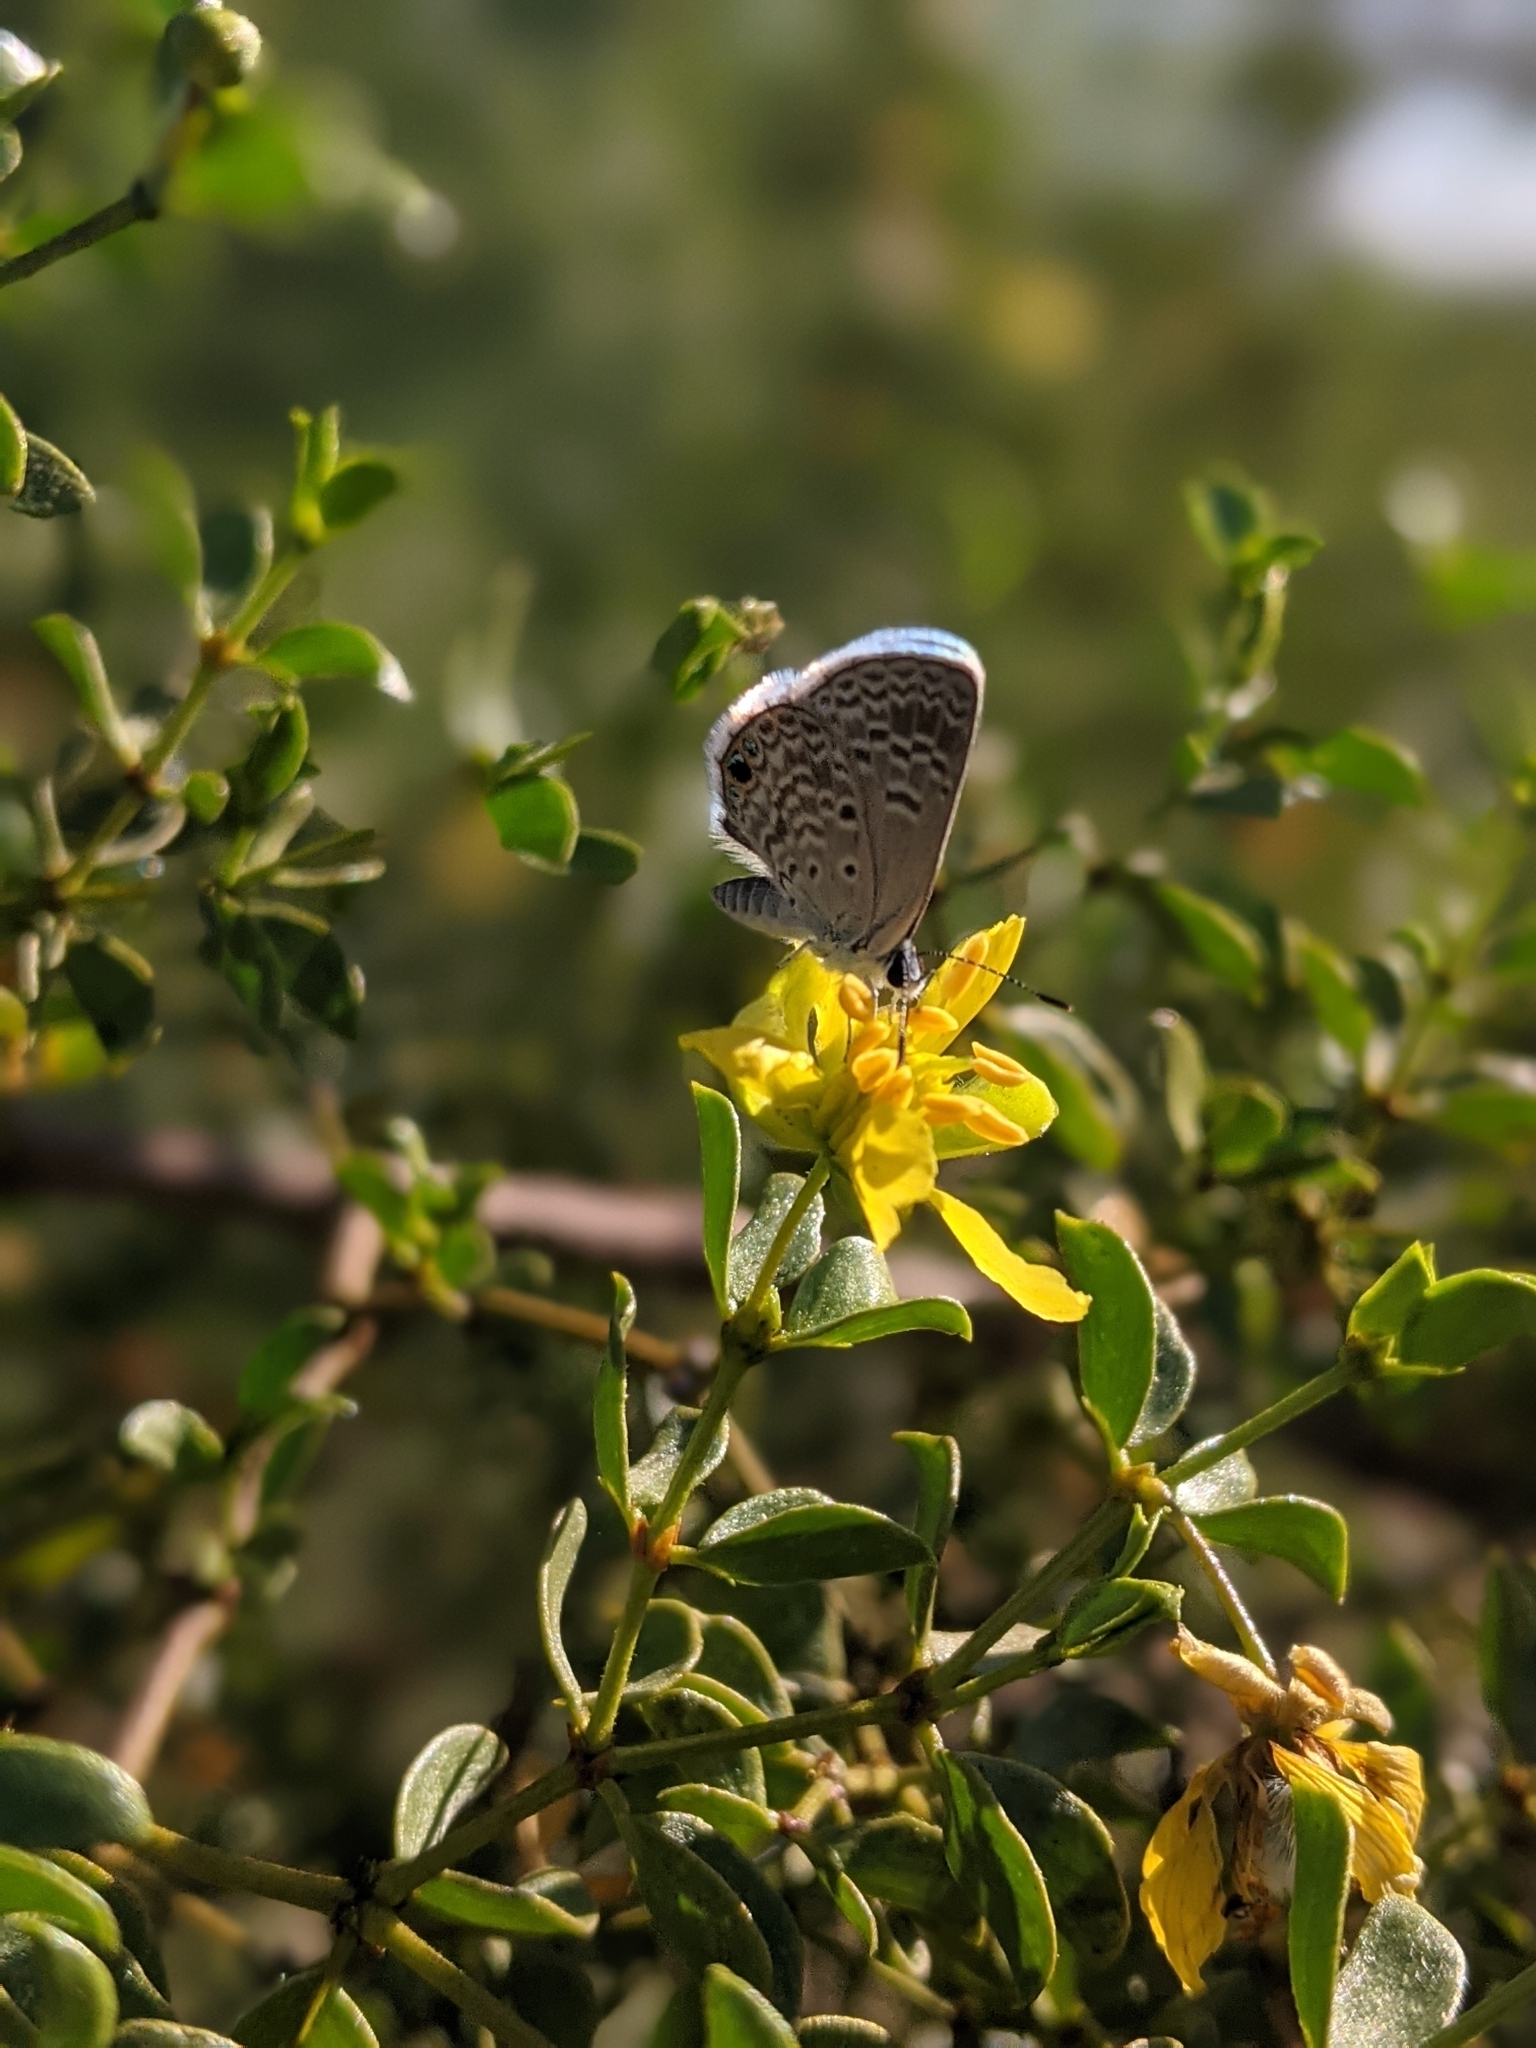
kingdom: Animalia
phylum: Arthropoda
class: Insecta
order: Lepidoptera
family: Lycaenidae
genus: Hemiargus
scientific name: Hemiargus ceraunus
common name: Ceraunus blue
